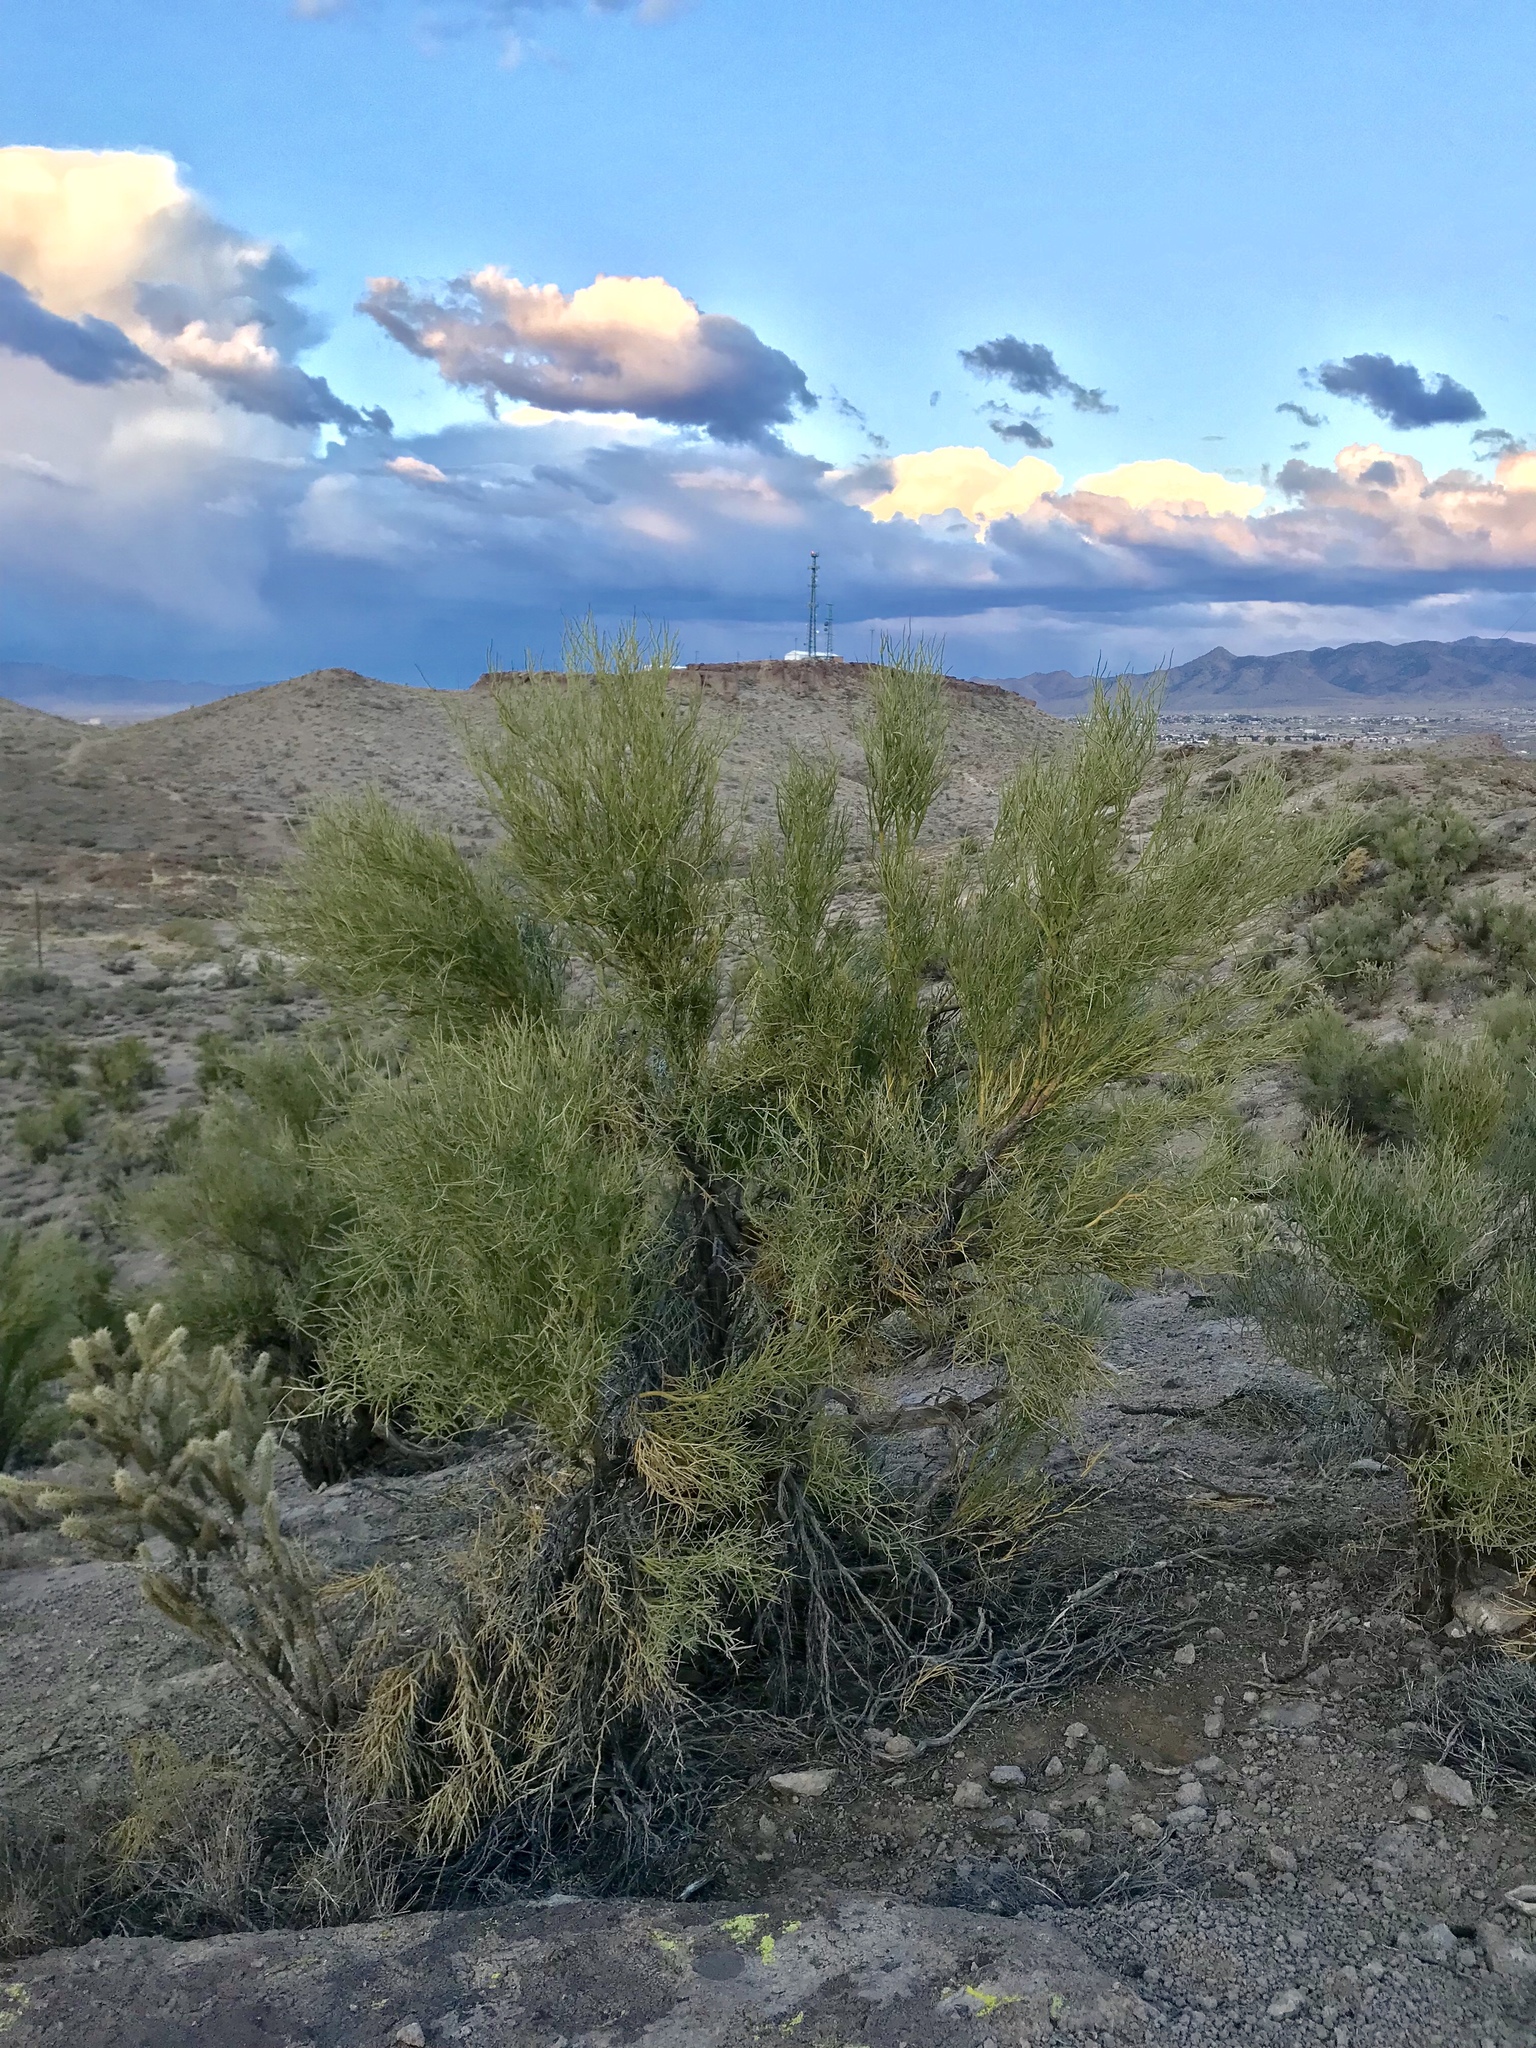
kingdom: Plantae
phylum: Tracheophyta
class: Magnoliopsida
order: Celastrales
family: Celastraceae
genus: Canotia
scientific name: Canotia holacantha
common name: Crucifixion thorns
